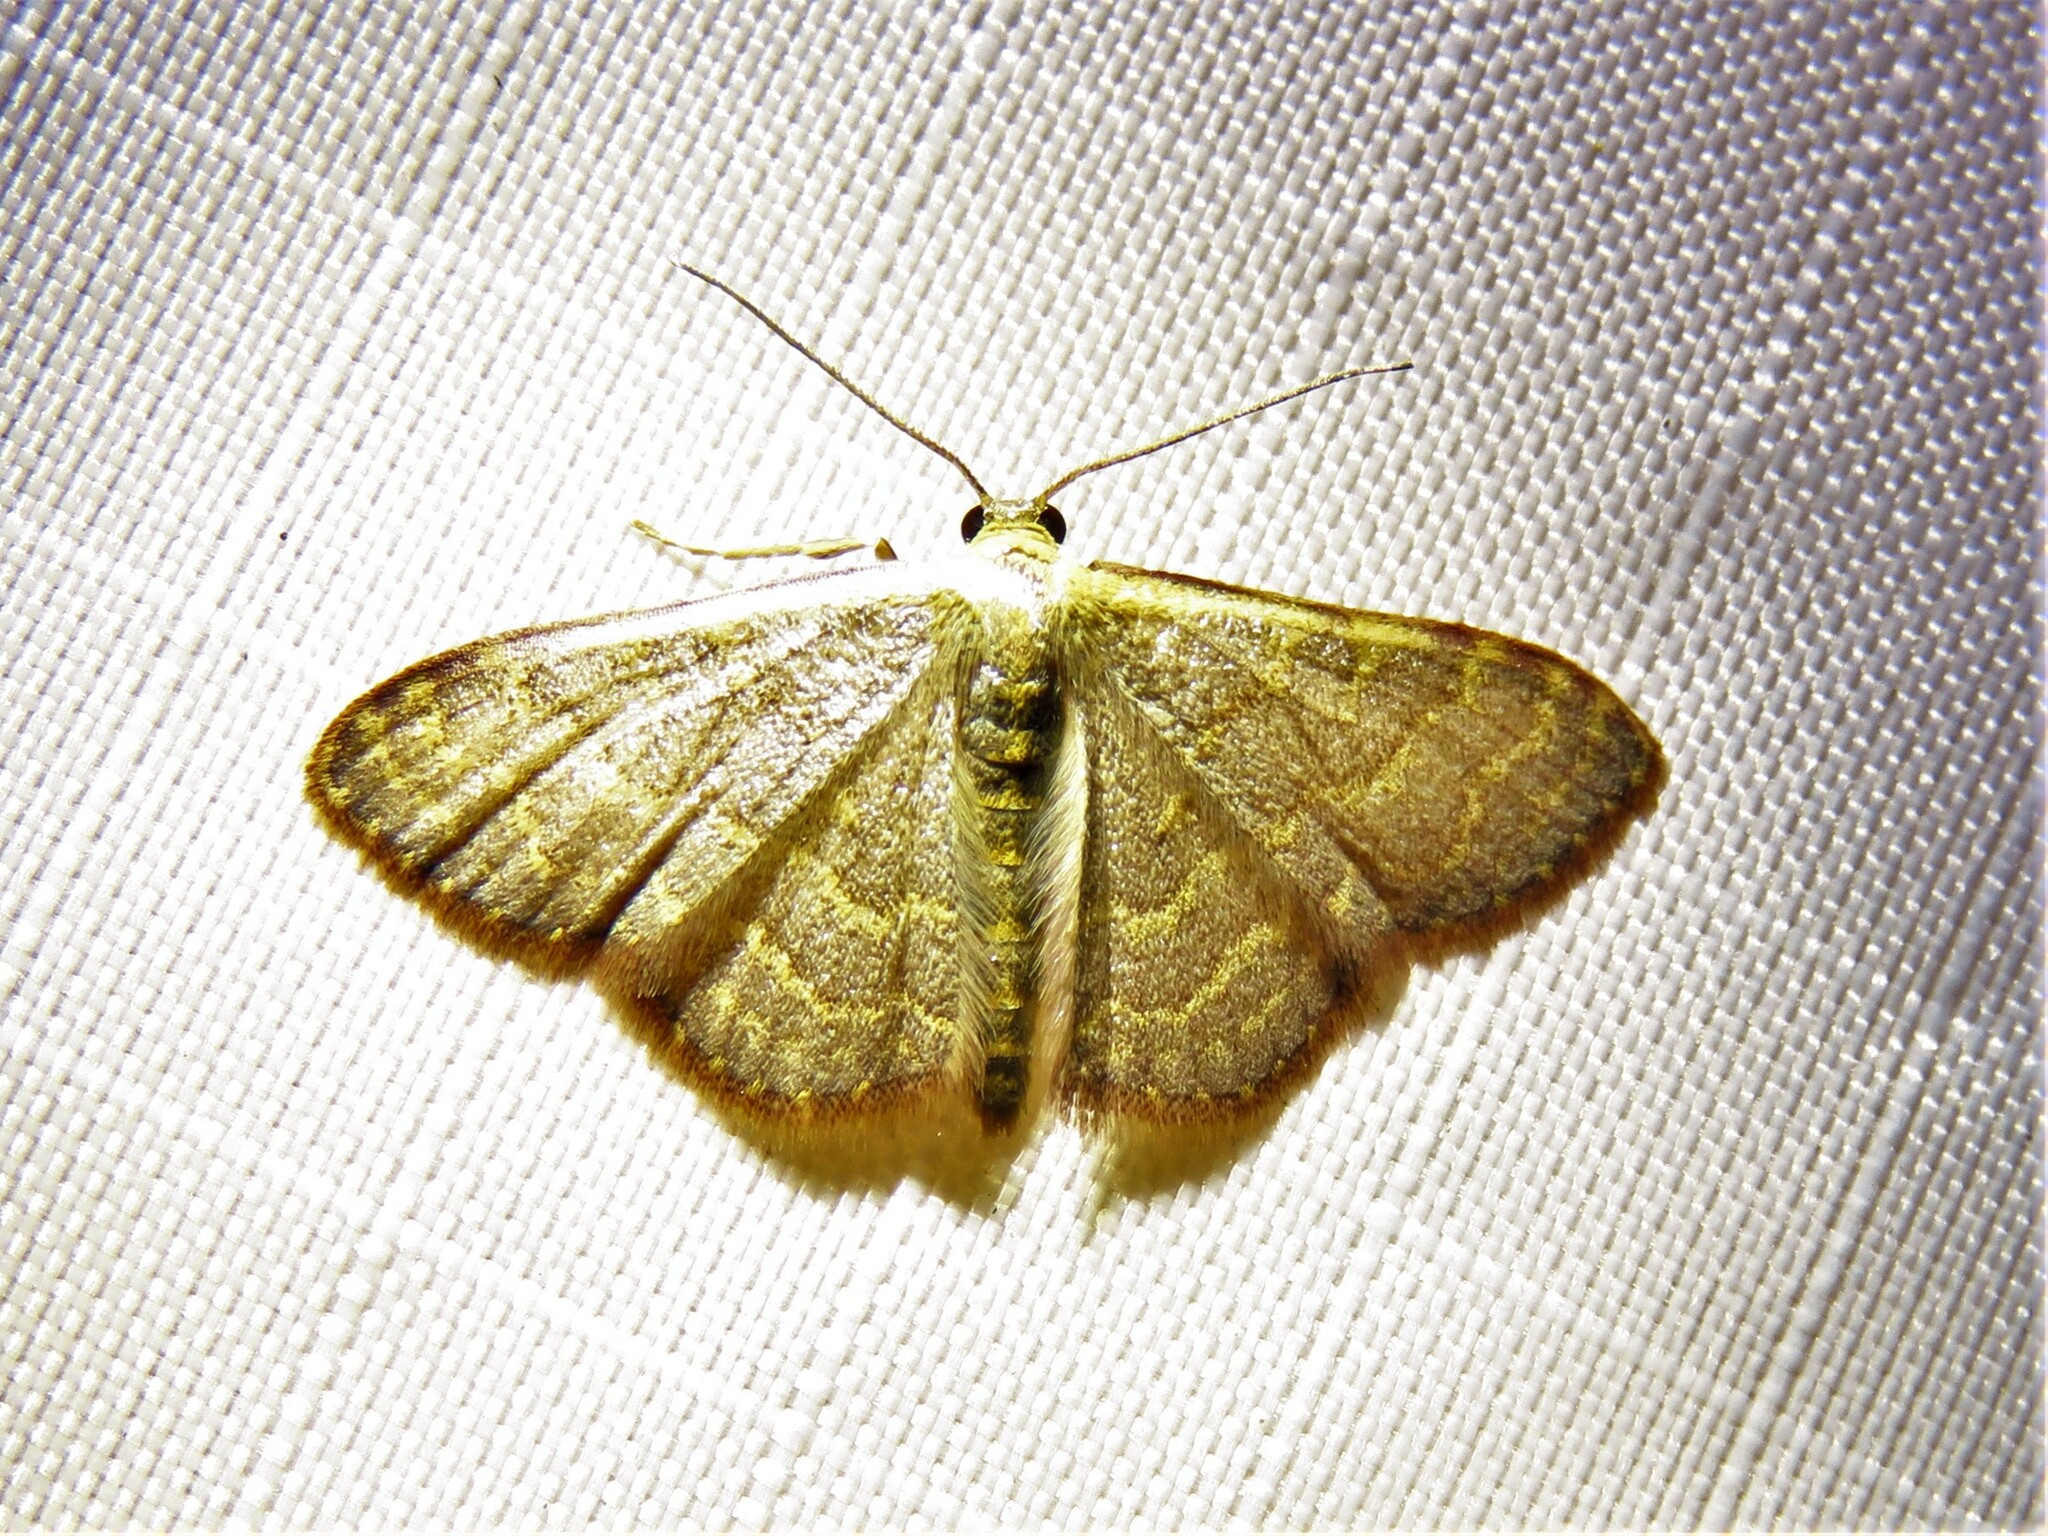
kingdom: Animalia
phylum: Arthropoda
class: Insecta
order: Lepidoptera
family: Geometridae
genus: Leptostales
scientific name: Leptostales pannaria
